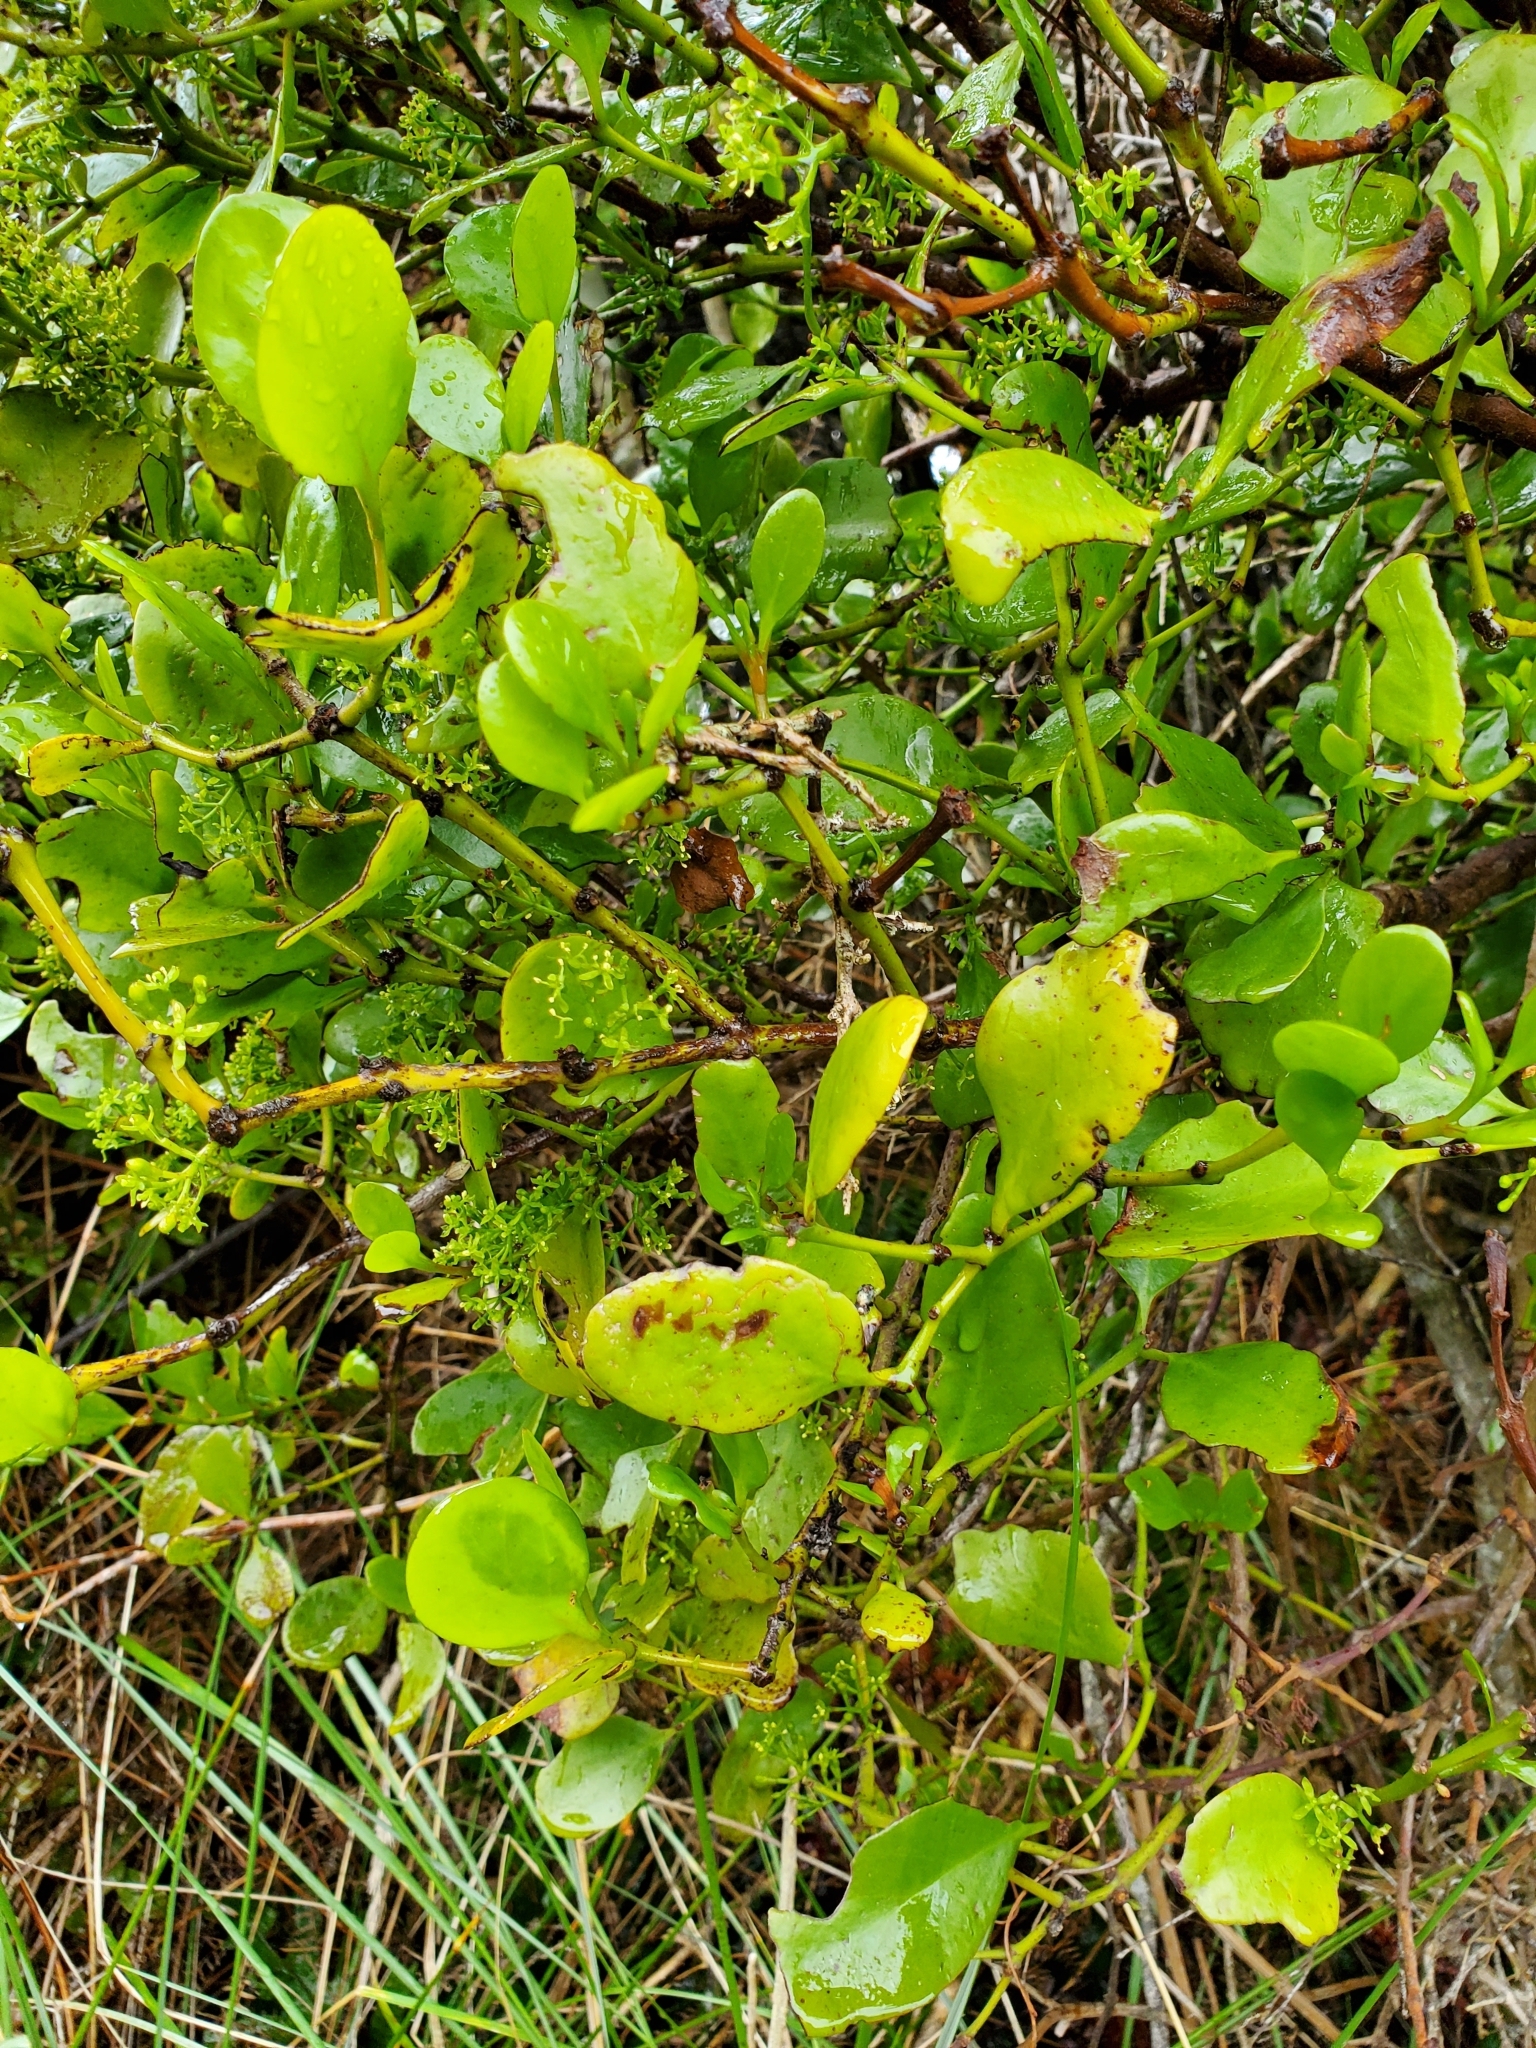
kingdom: Plantae
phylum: Tracheophyta
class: Magnoliopsida
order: Santalales
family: Loranthaceae
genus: Ileostylus
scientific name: Ileostylus micranthus
